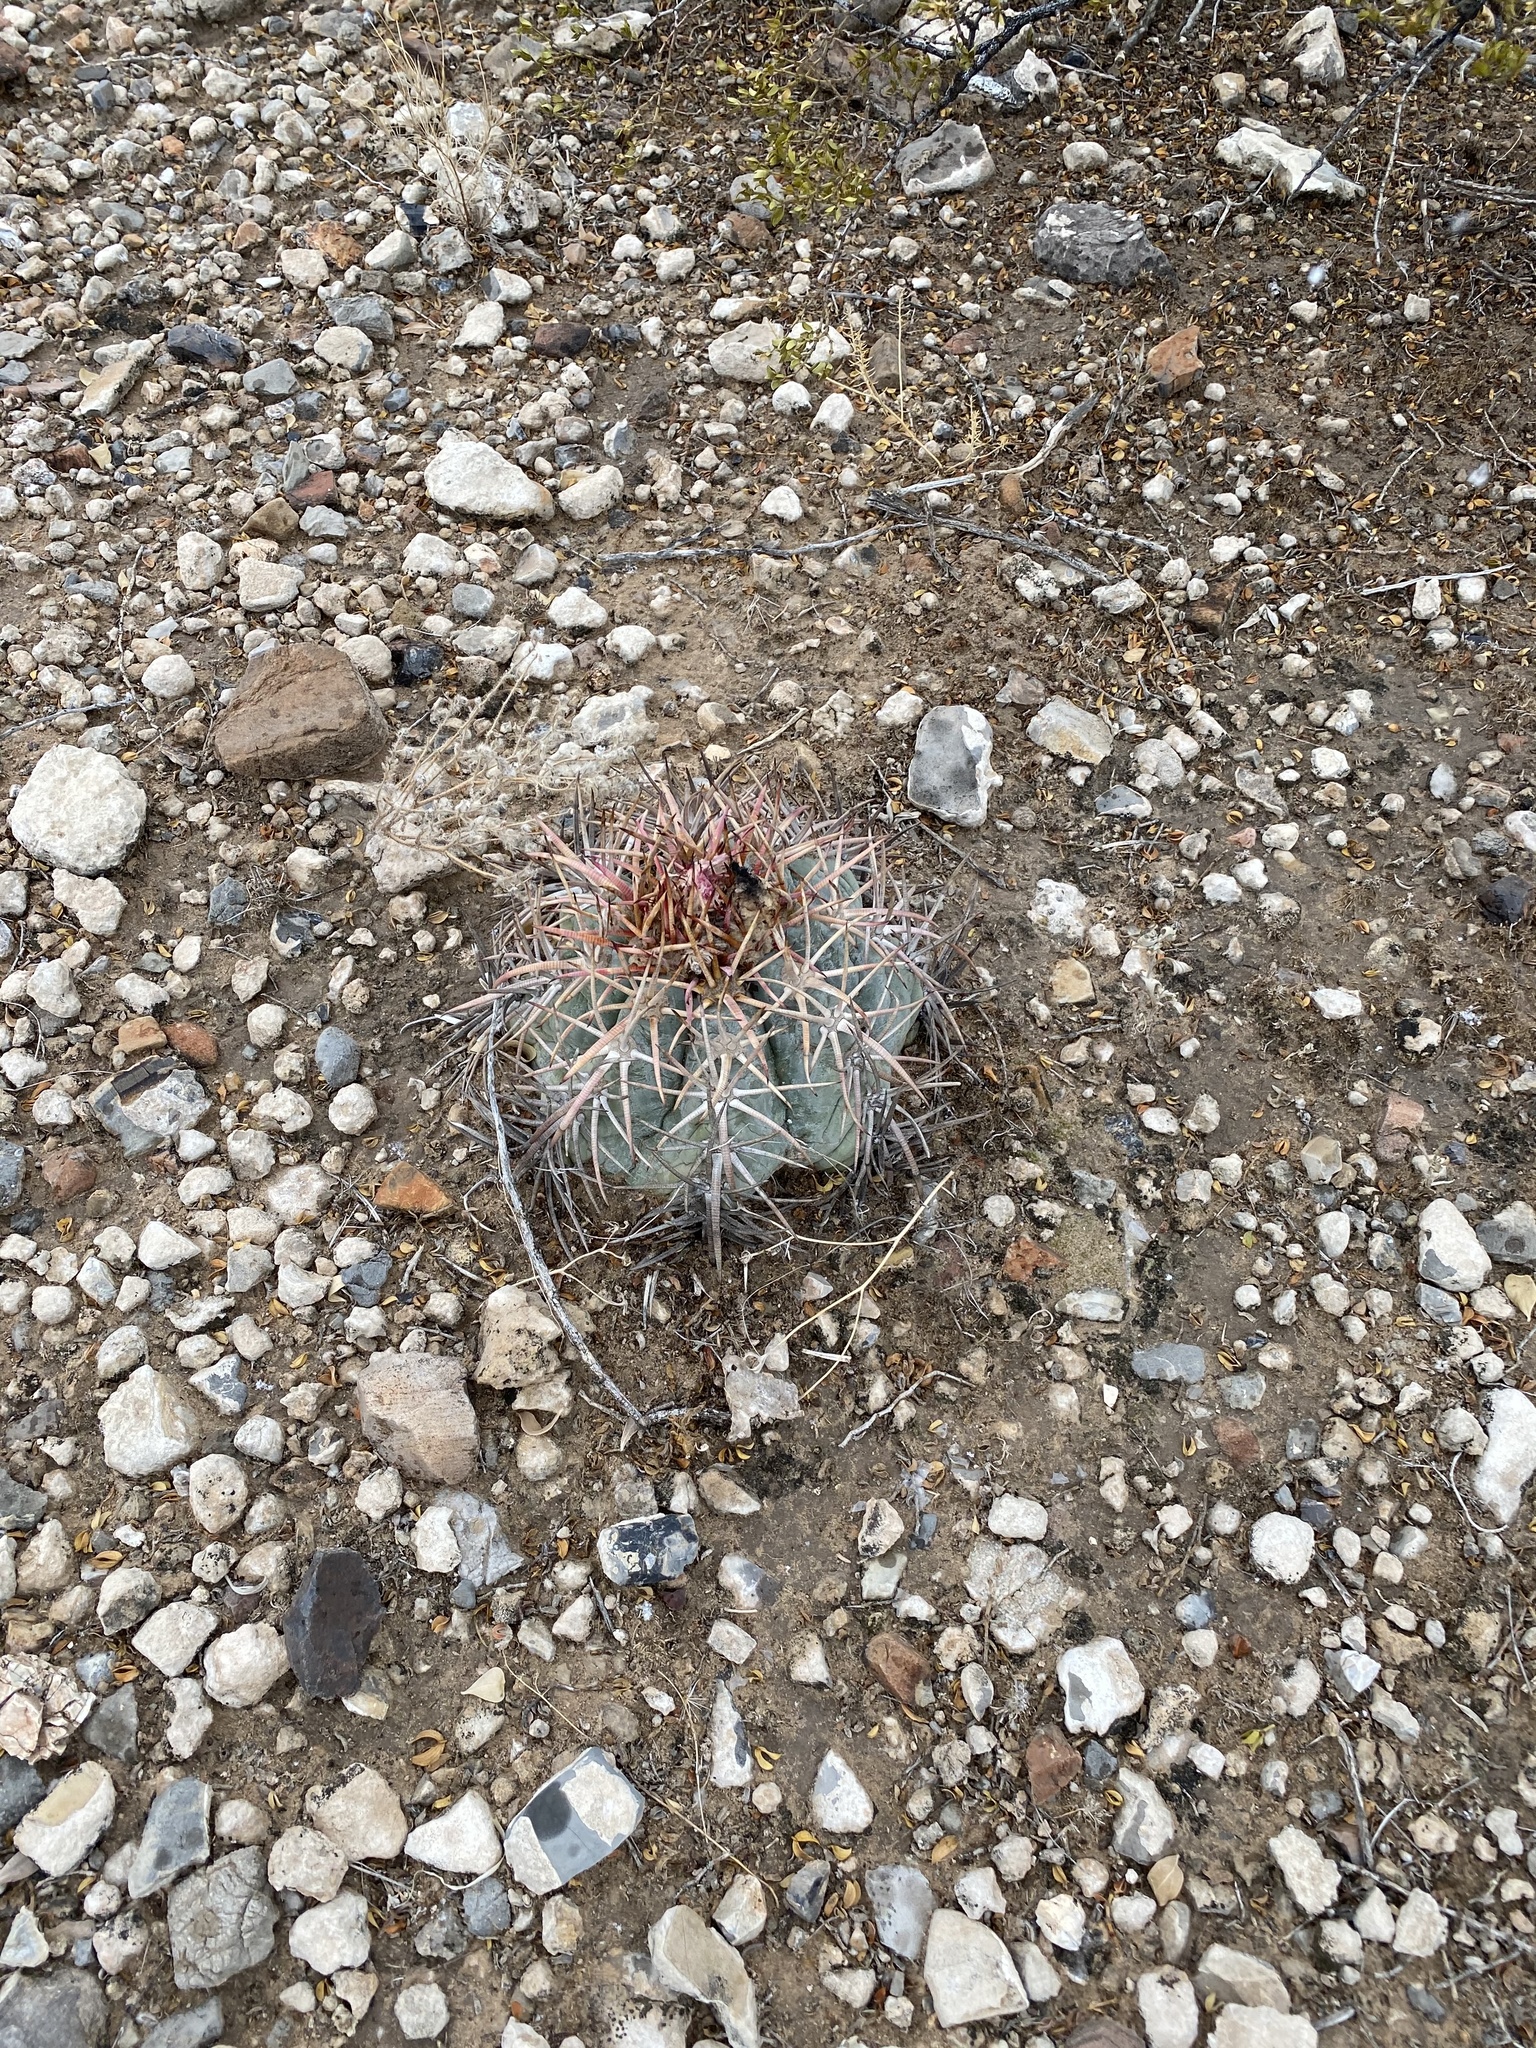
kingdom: Plantae
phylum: Tracheophyta
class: Magnoliopsida
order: Caryophyllales
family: Cactaceae
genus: Echinocactus
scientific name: Echinocactus horizonthalonius
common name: Devilshead
